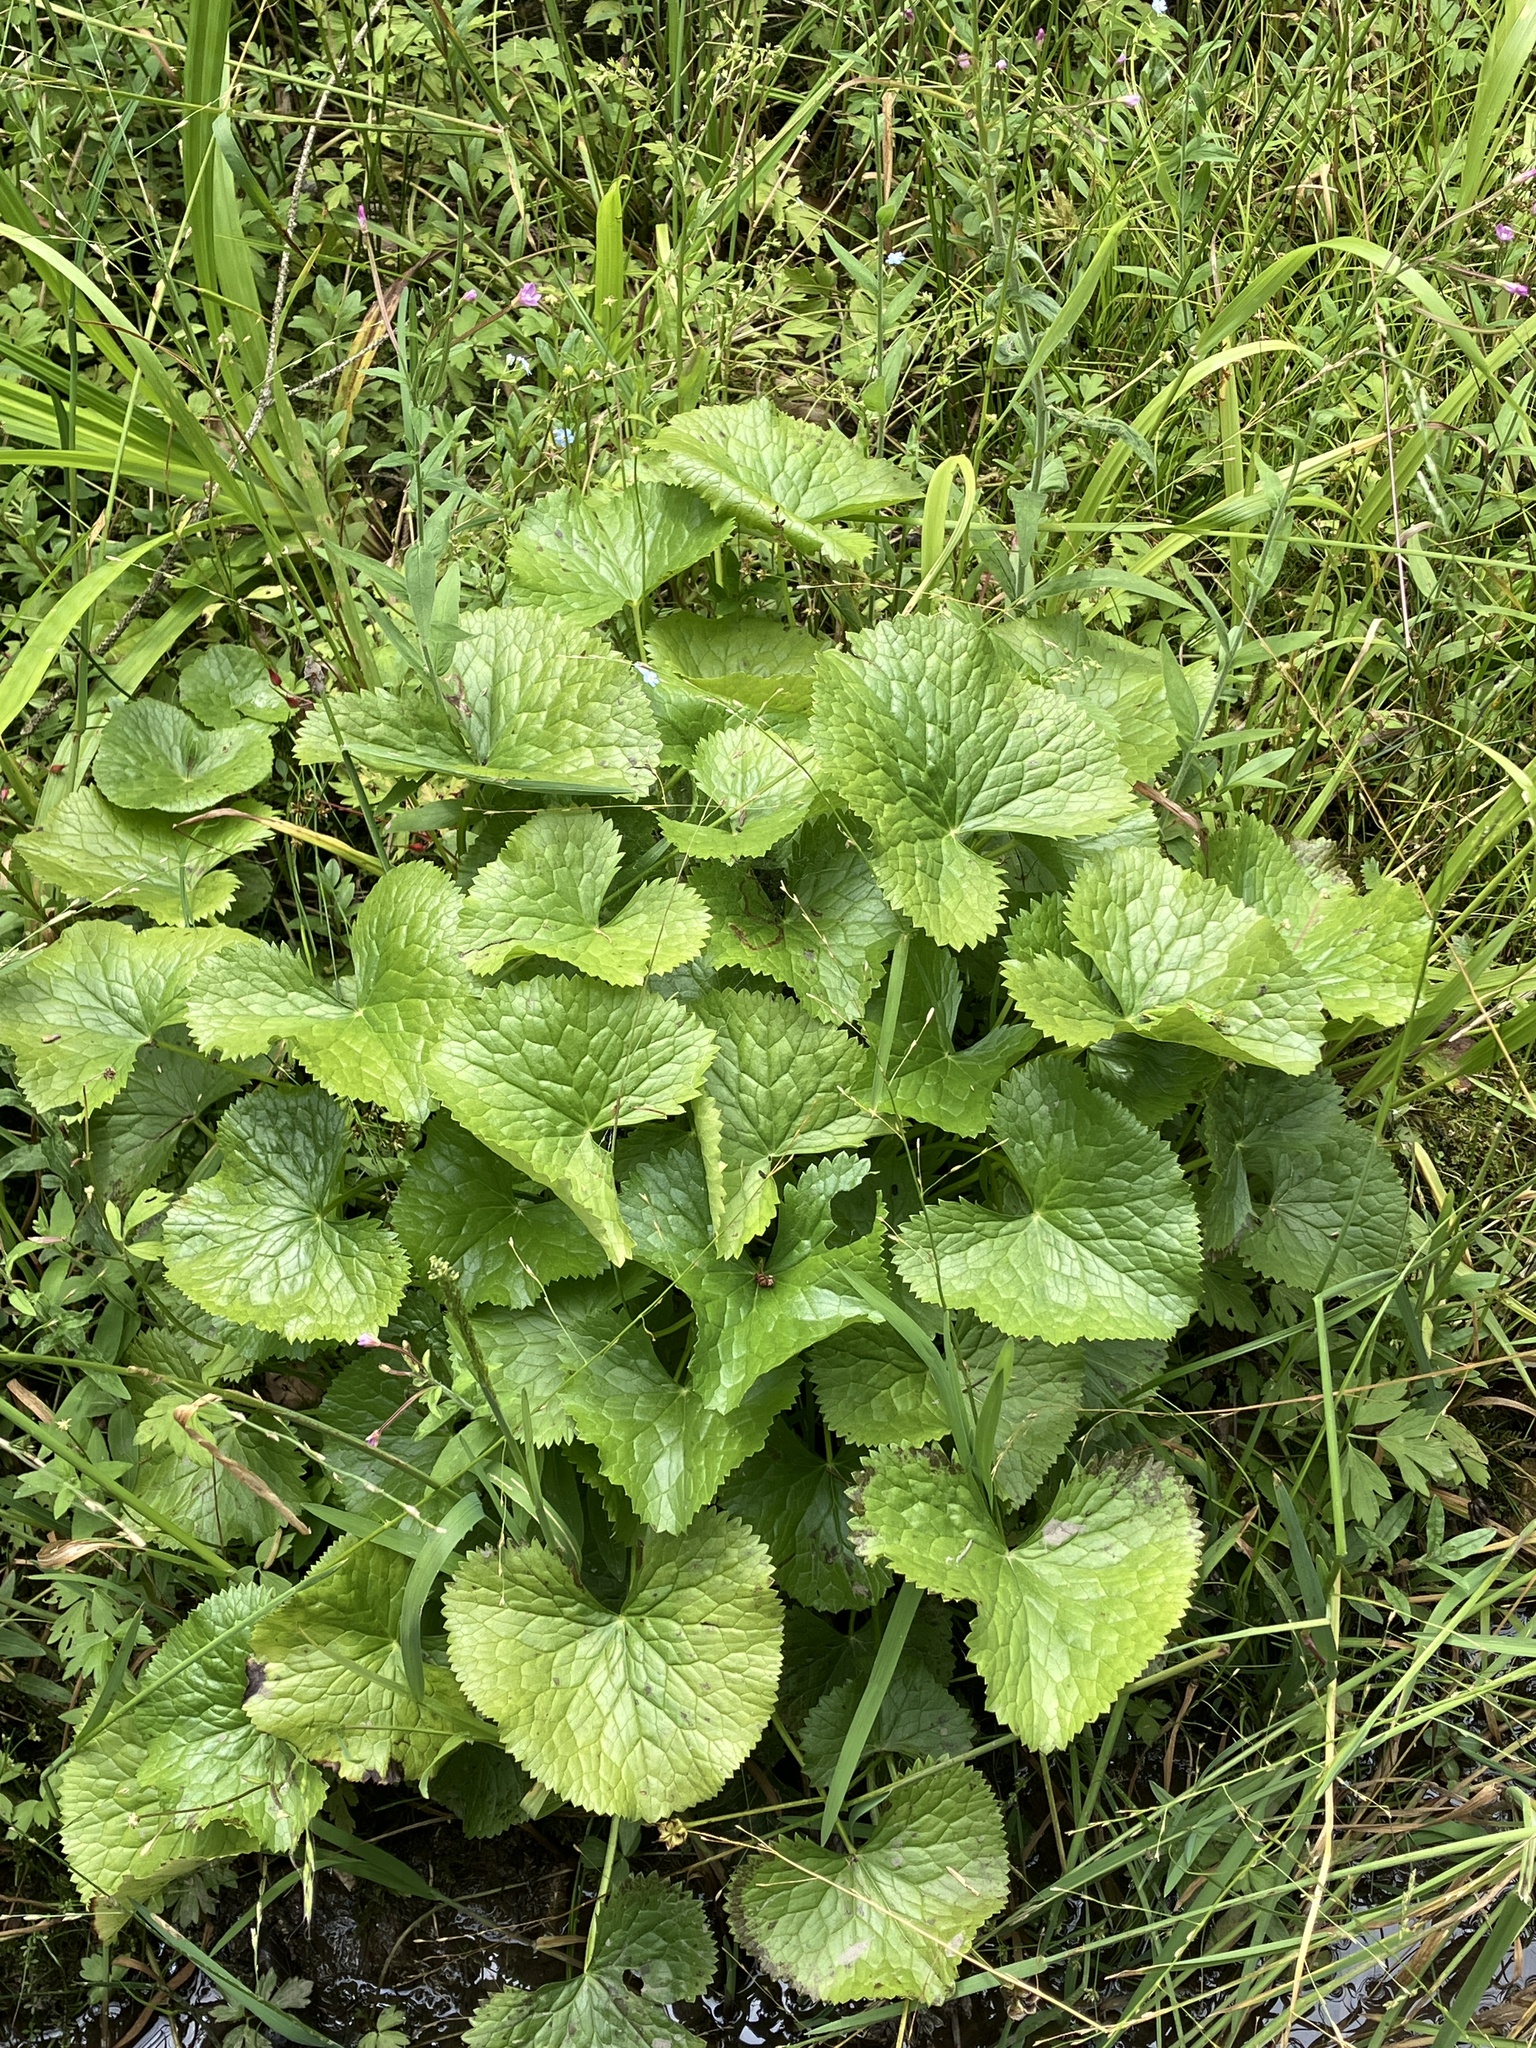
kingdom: Plantae
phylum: Tracheophyta
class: Magnoliopsida
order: Ranunculales
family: Ranunculaceae
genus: Caltha
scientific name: Caltha palustris
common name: Marsh marigold
